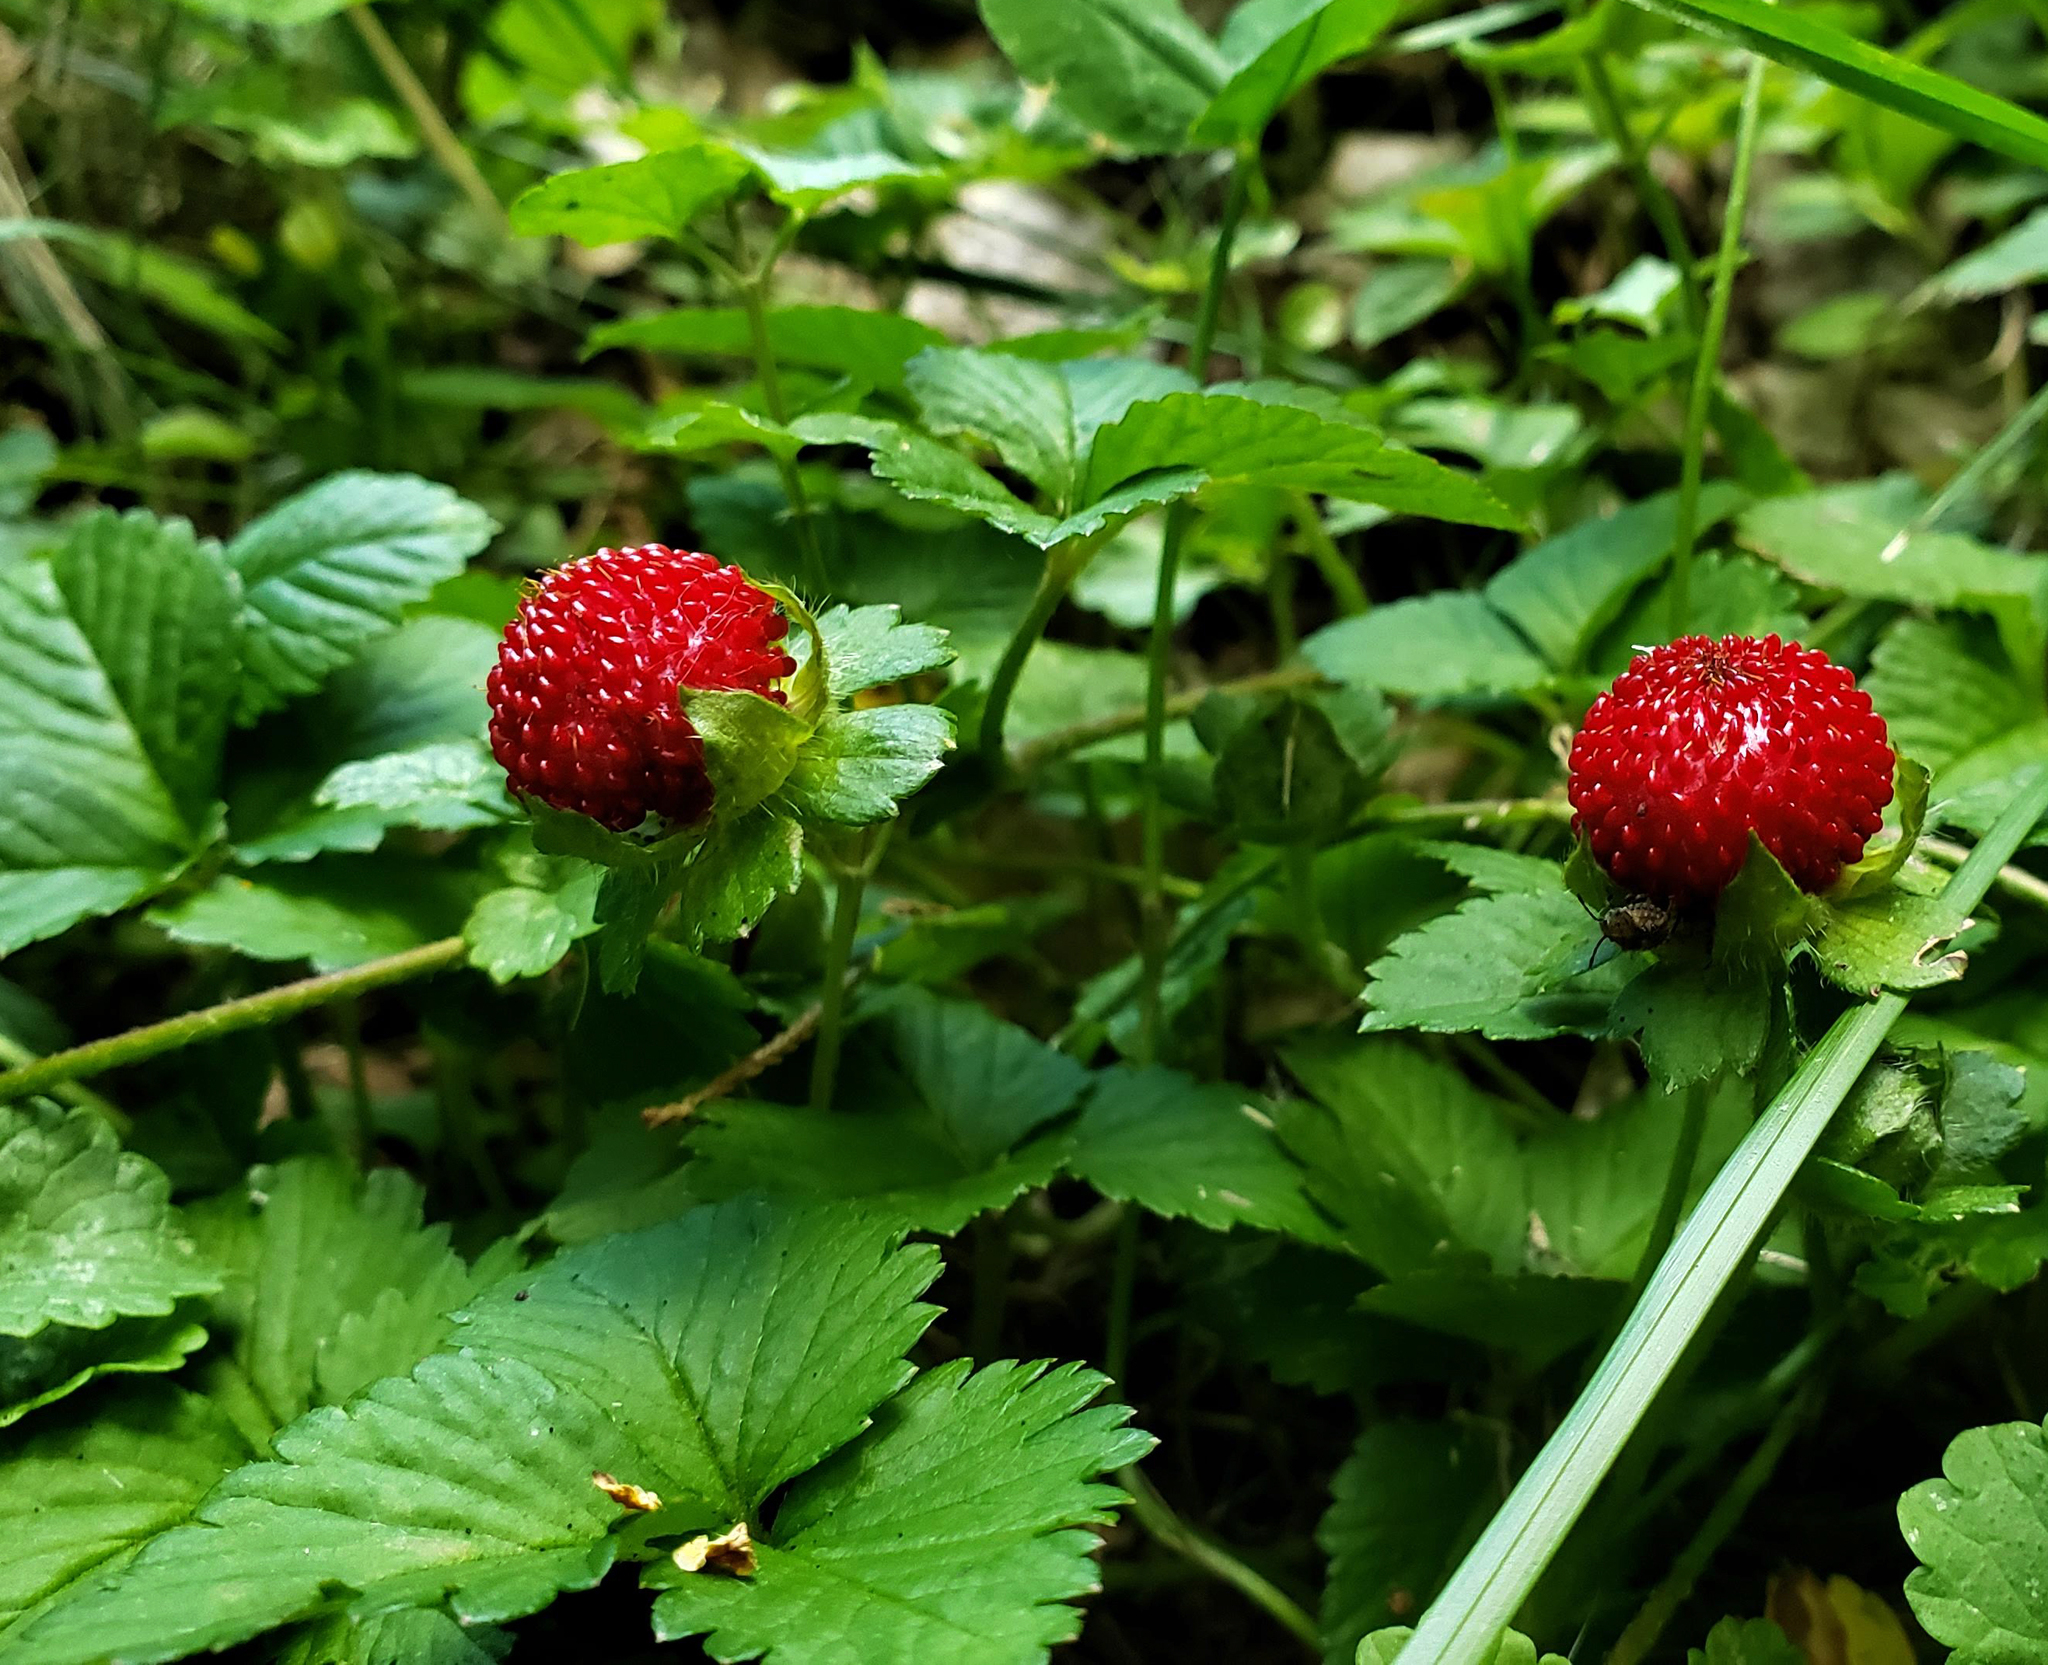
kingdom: Plantae
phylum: Tracheophyta
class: Magnoliopsida
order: Rosales
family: Rosaceae
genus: Potentilla
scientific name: Potentilla indica
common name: Yellow-flowered strawberry
